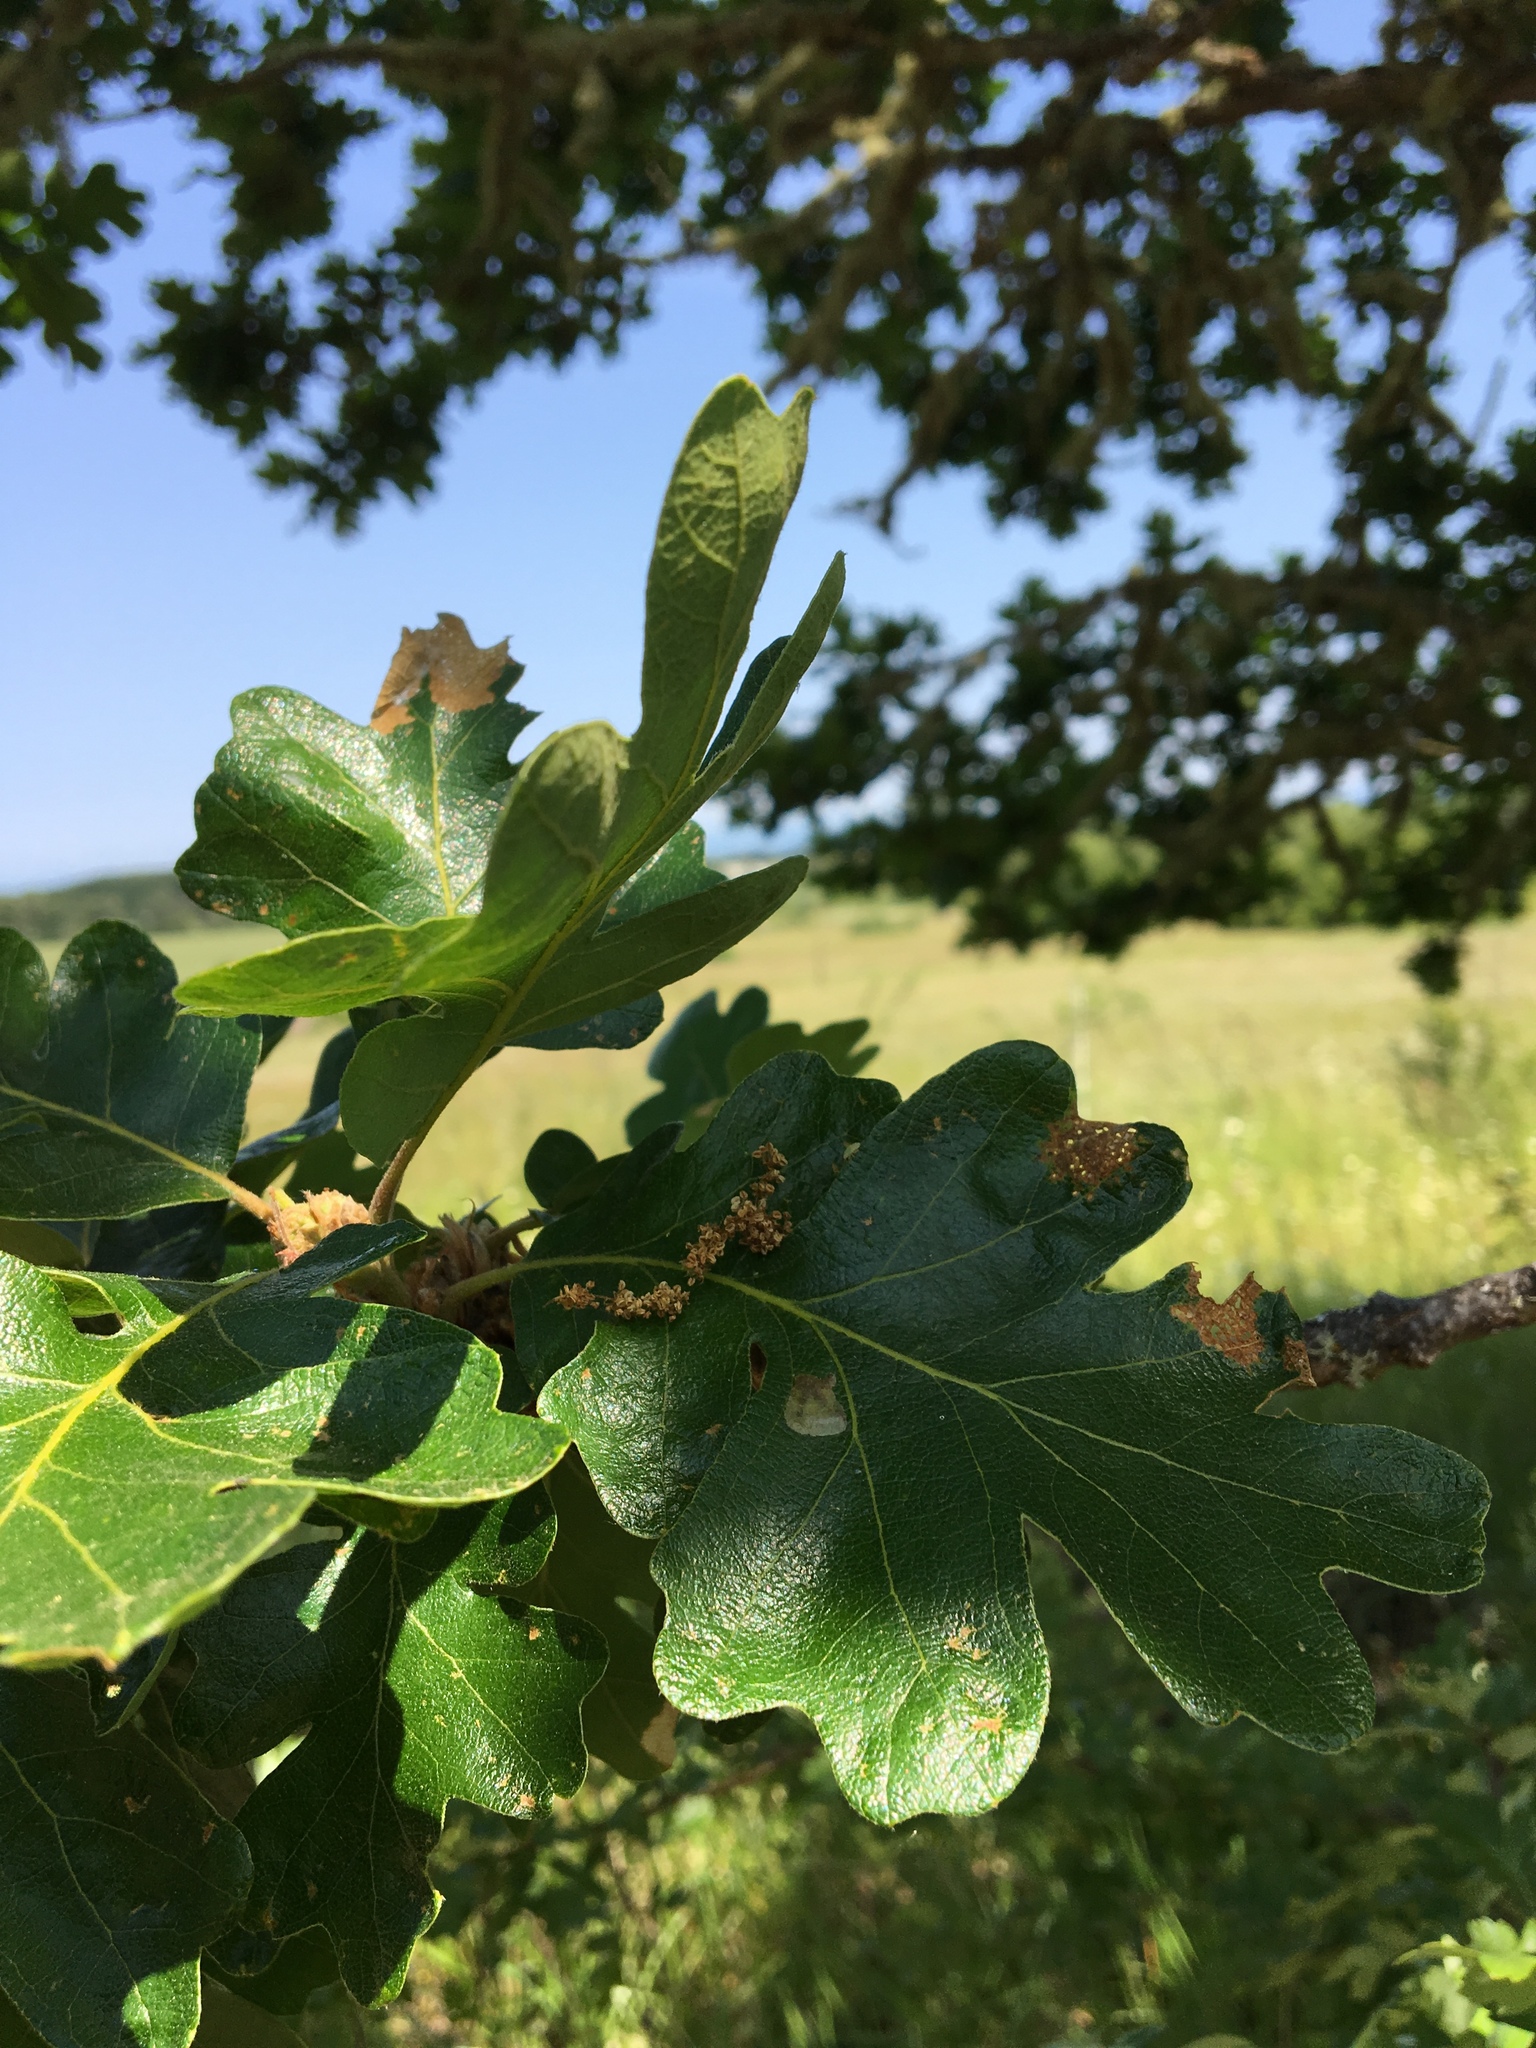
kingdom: Plantae
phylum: Tracheophyta
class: Magnoliopsida
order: Fagales
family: Fagaceae
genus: Quercus
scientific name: Quercus garryana
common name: Garry oak
